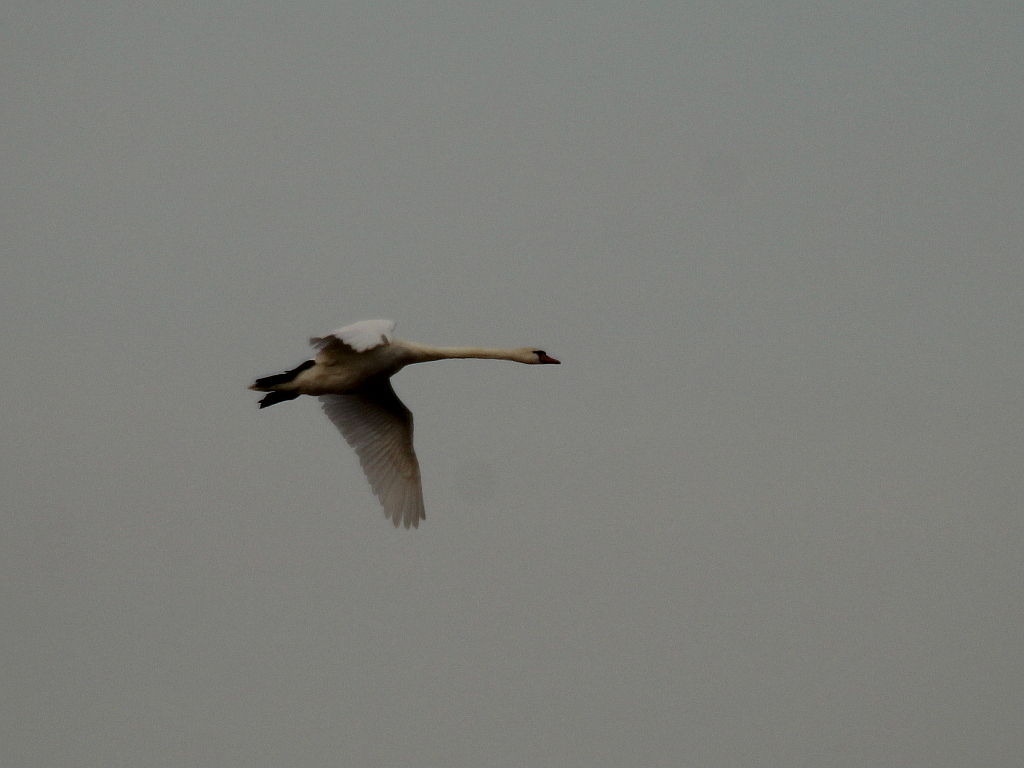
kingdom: Animalia
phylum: Chordata
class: Aves
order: Anseriformes
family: Anatidae
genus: Cygnus
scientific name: Cygnus olor
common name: Mute swan
